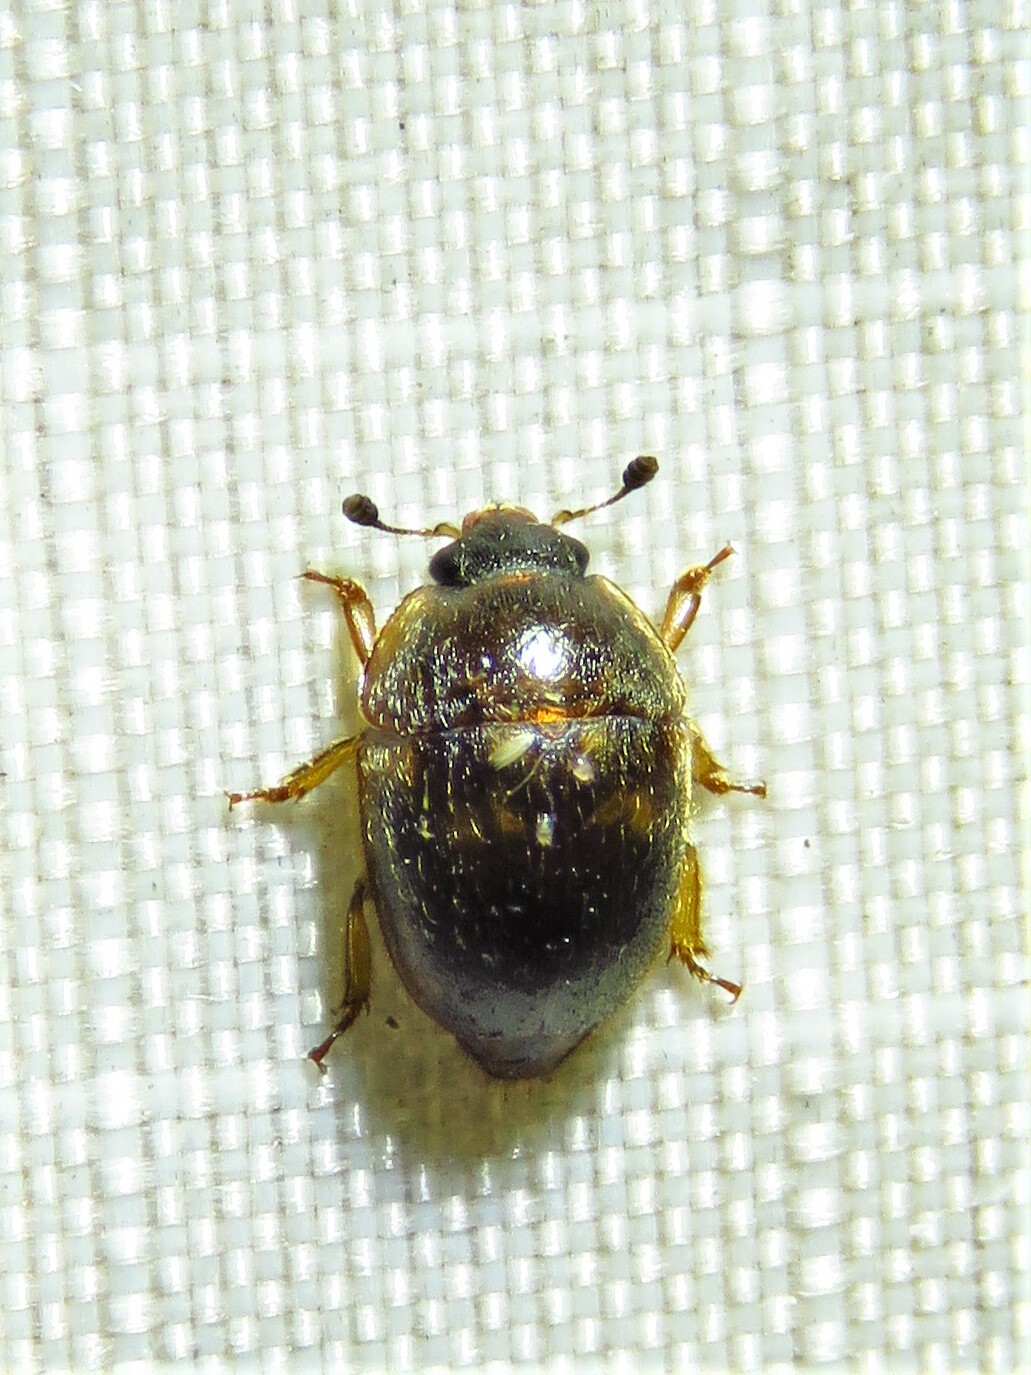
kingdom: Animalia
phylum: Arthropoda
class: Insecta
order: Coleoptera
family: Nitidulidae
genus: Amphicrossus
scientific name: Amphicrossus ciliatus
